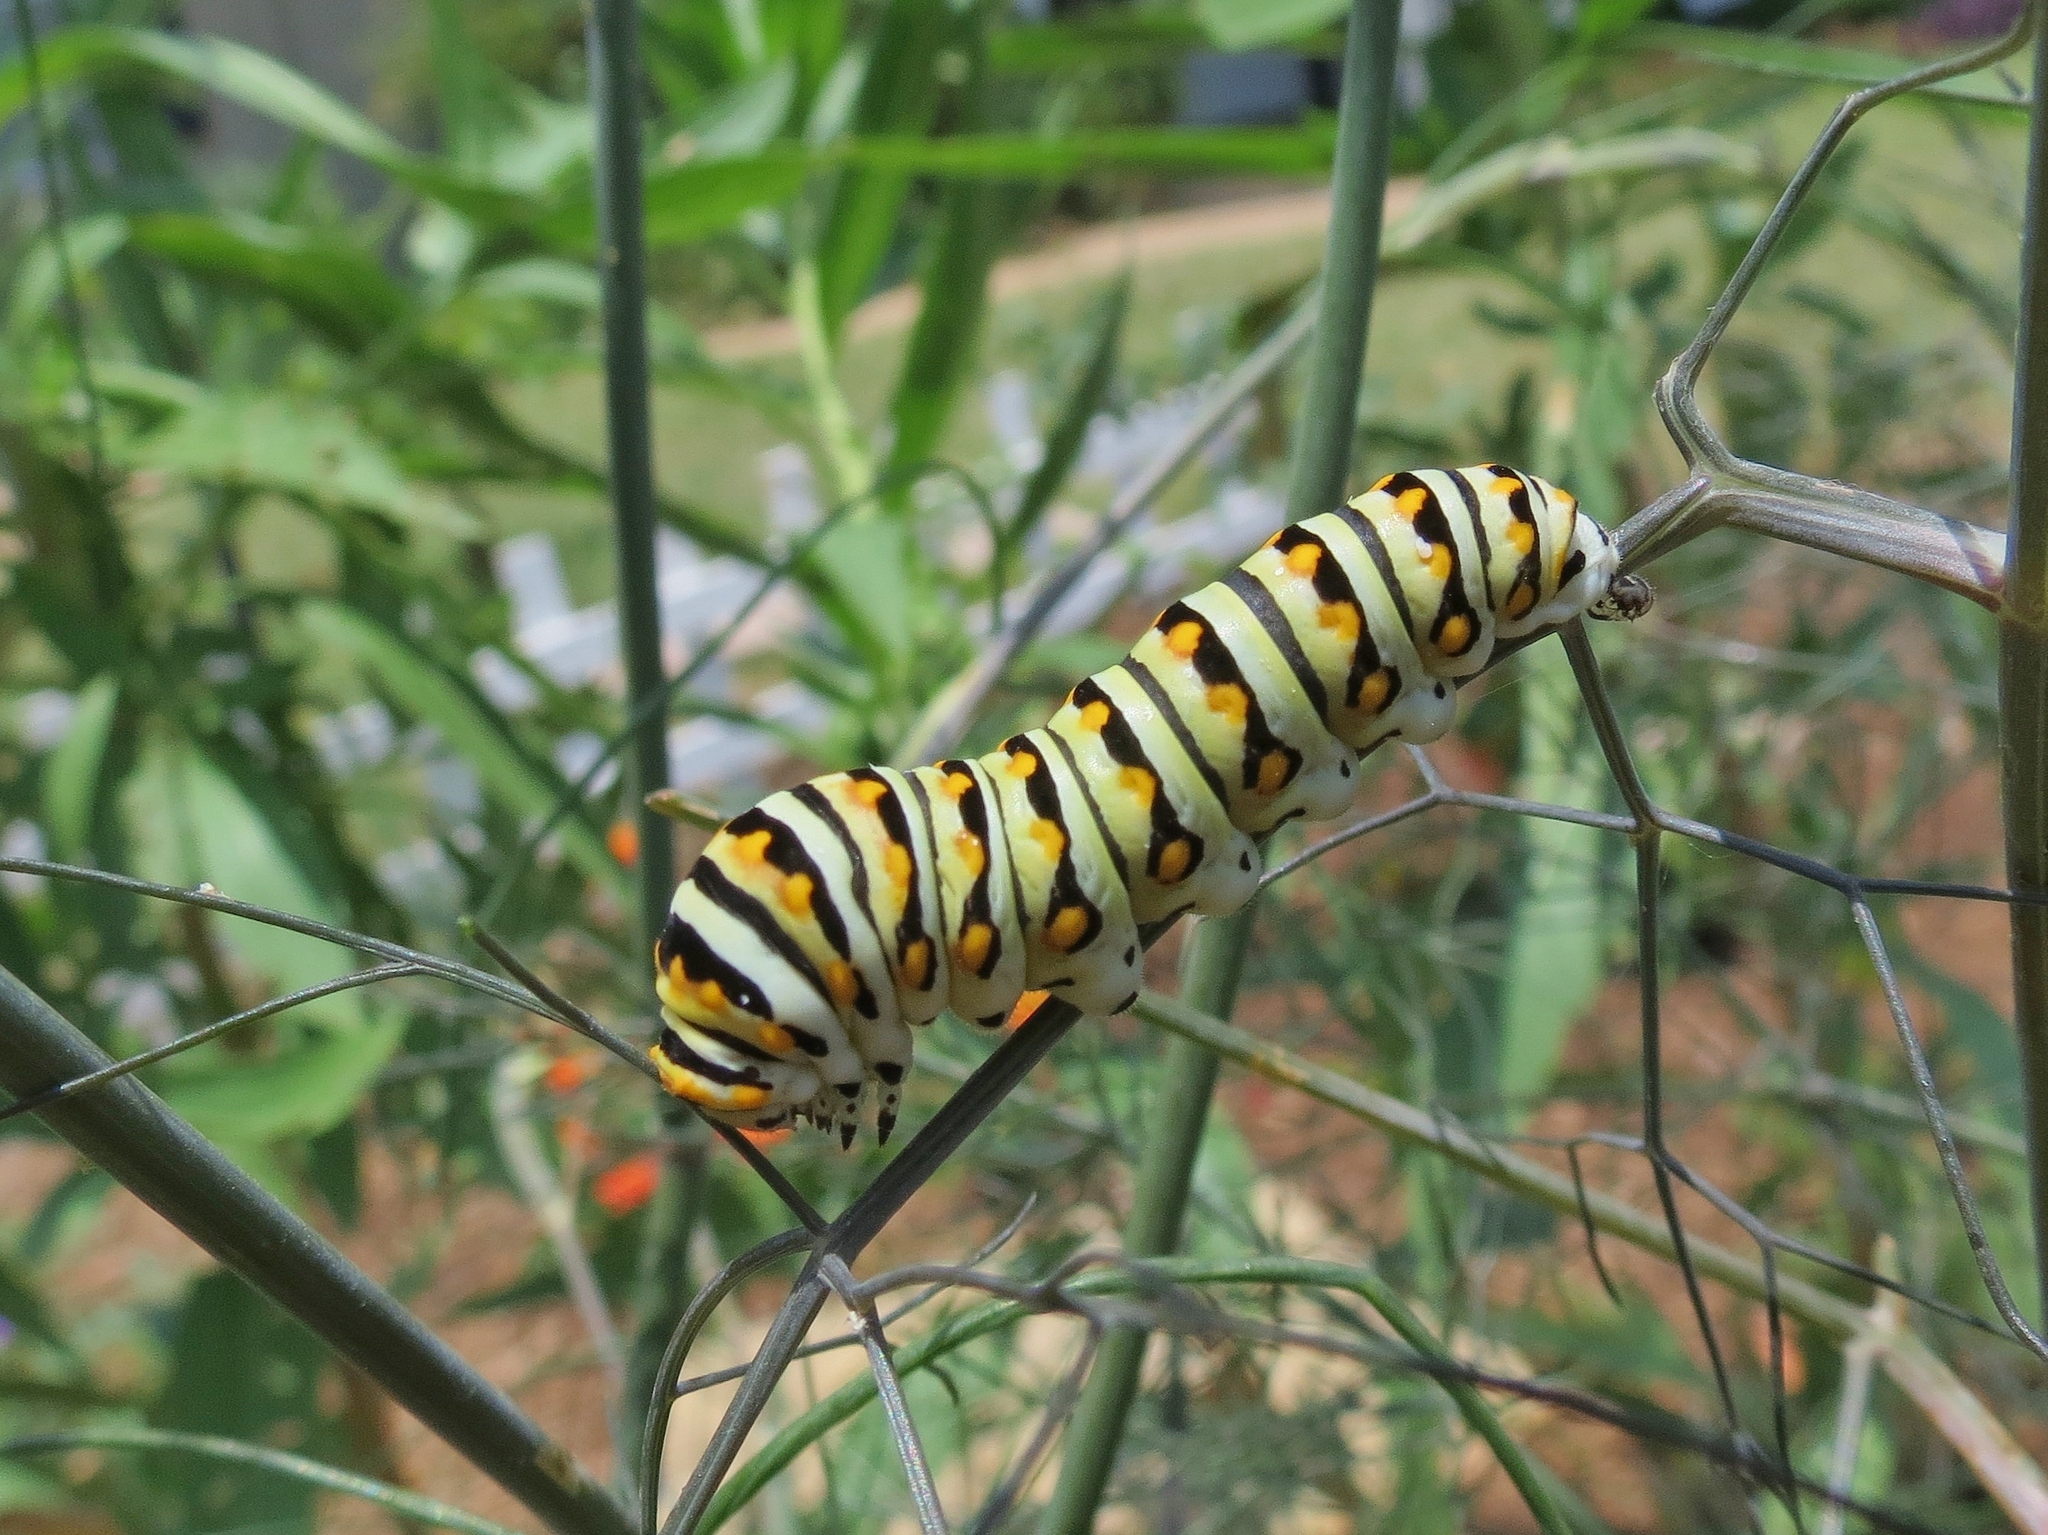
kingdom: Animalia
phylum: Arthropoda
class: Insecta
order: Lepidoptera
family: Papilionidae
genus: Papilio
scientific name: Papilio polyxenes
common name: Black swallowtail
